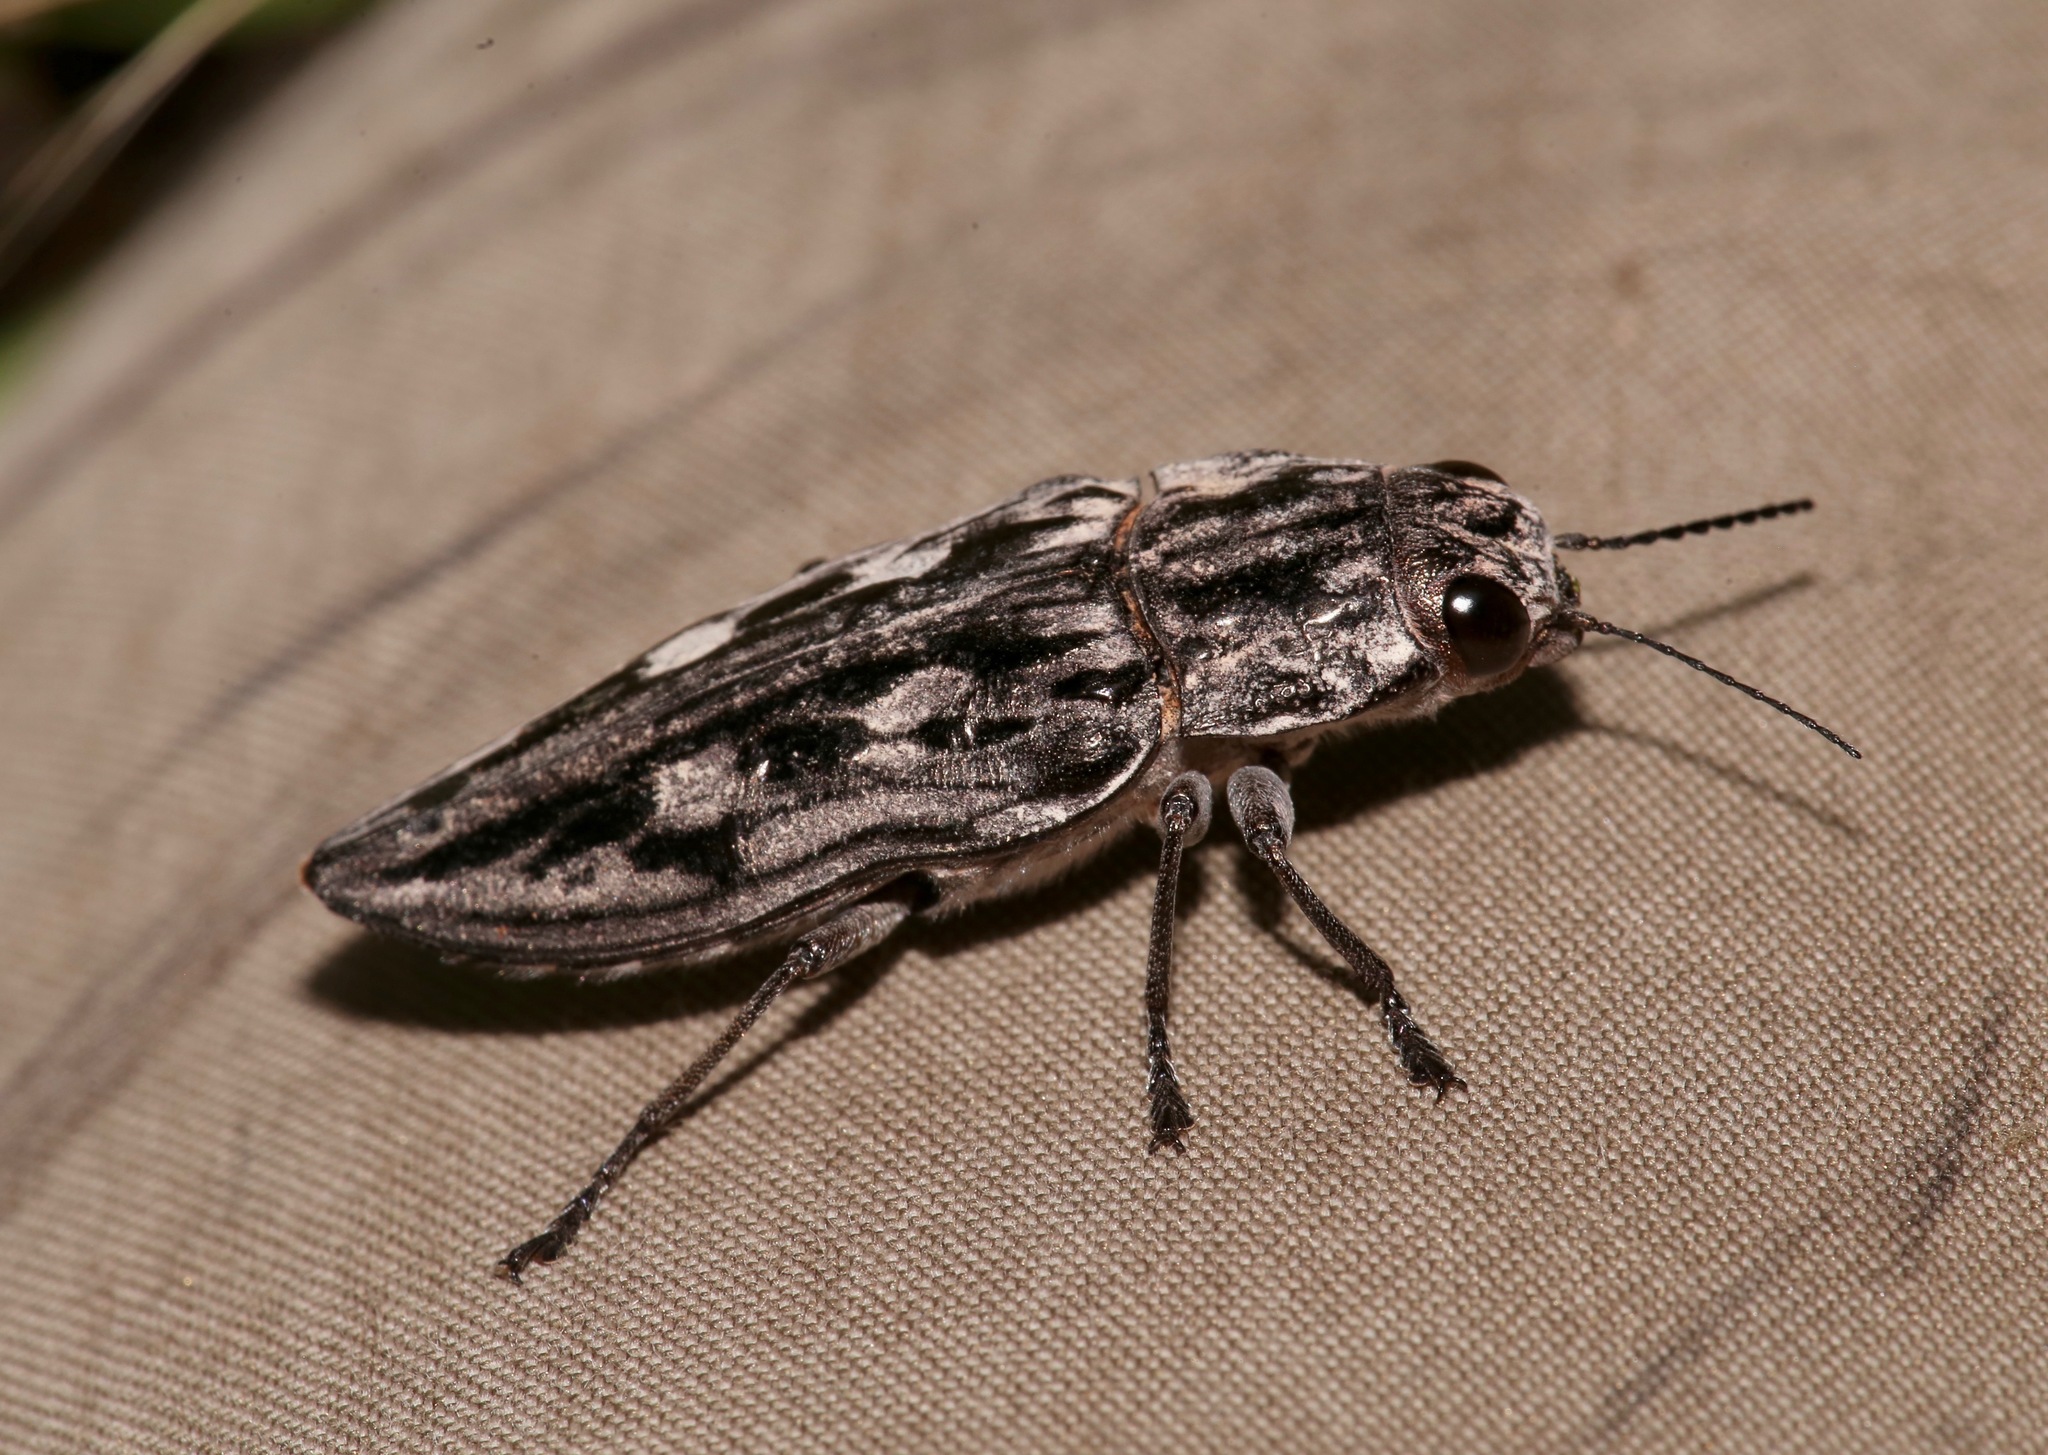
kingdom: Animalia
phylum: Arthropoda
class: Insecta
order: Coleoptera
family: Buprestidae
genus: Chalcophora
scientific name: Chalcophora virginiensis
